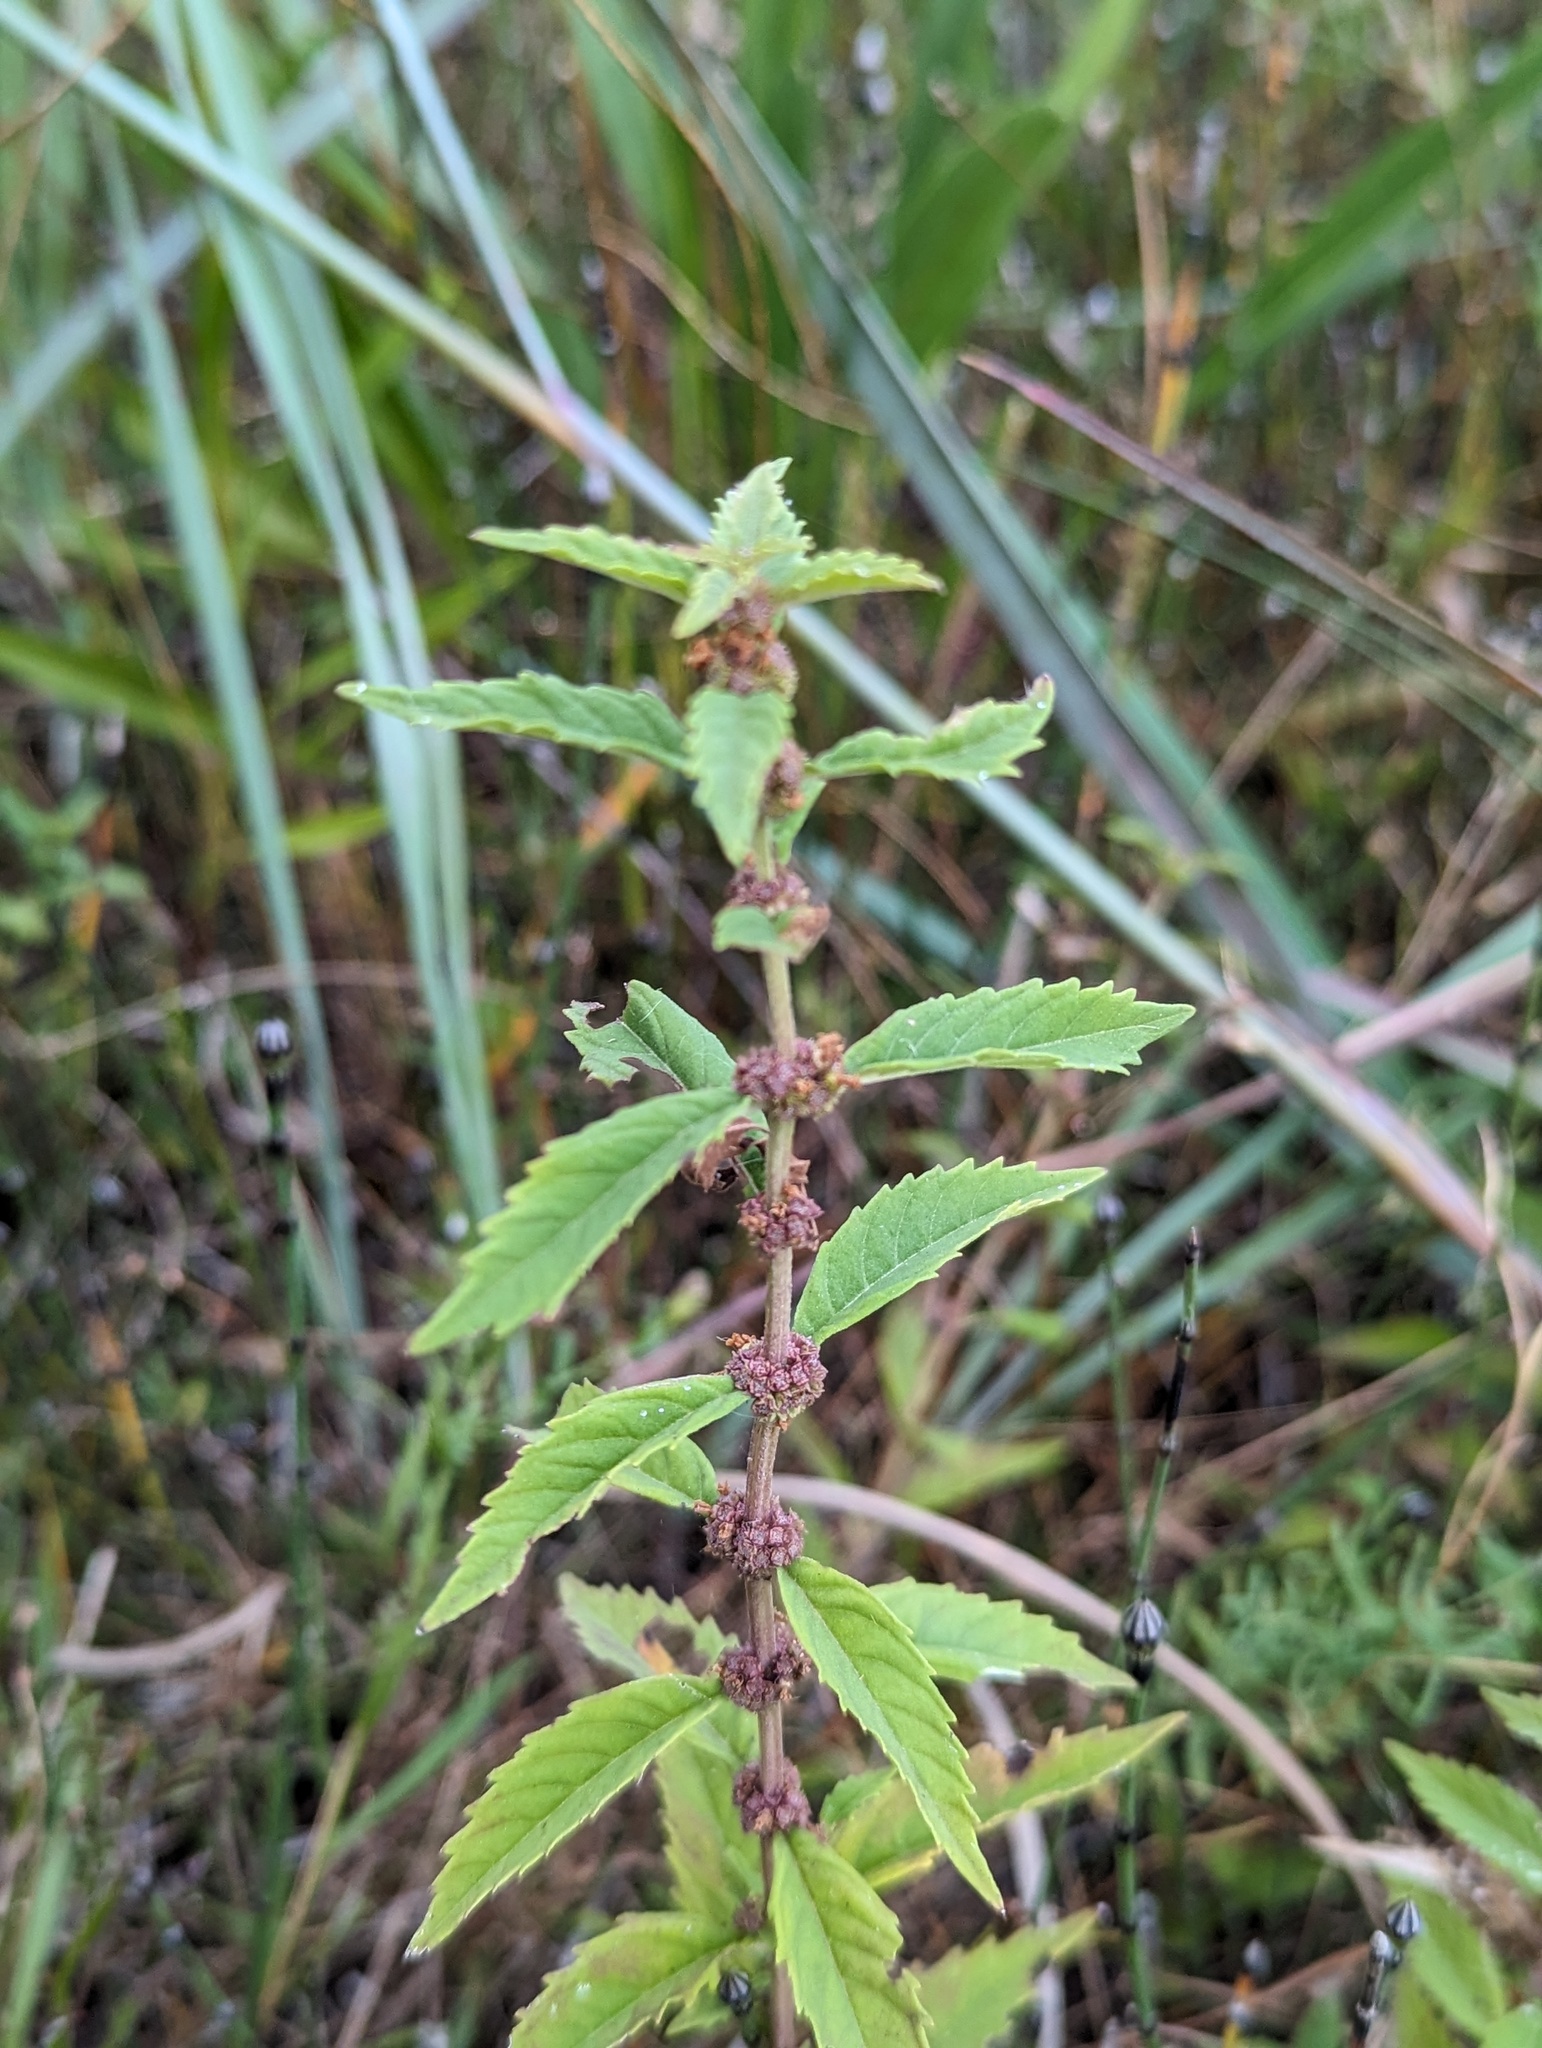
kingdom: Plantae
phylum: Tracheophyta
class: Magnoliopsida
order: Lamiales
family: Lamiaceae
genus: Lycopus
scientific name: Lycopus europaeus
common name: European bugleweed
